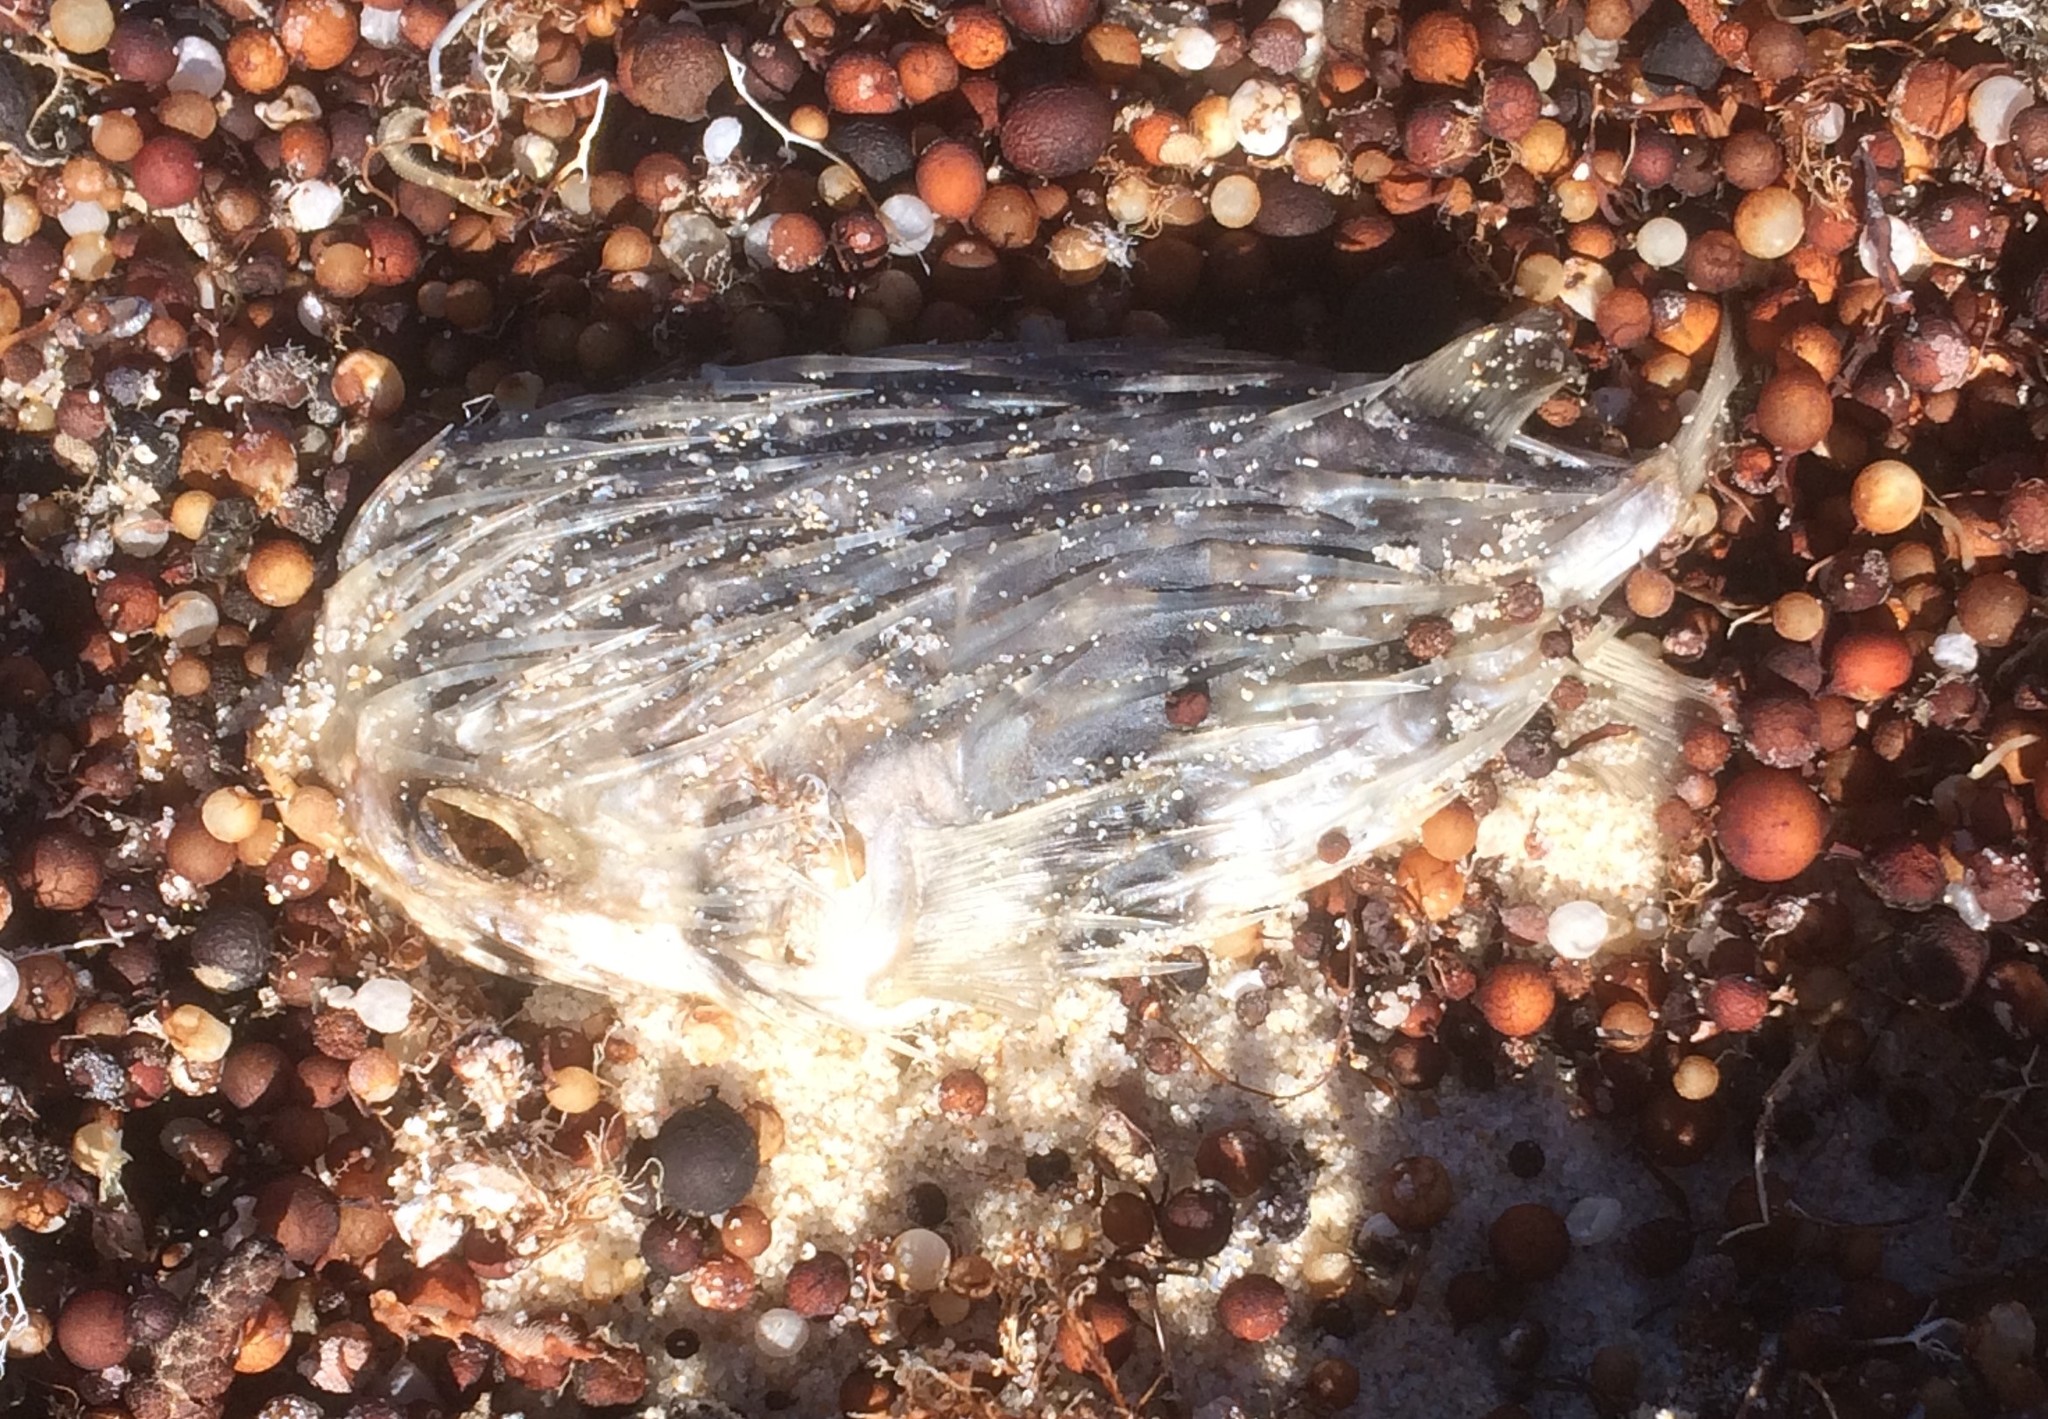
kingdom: Animalia
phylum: Chordata
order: Tetraodontiformes
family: Diodontidae
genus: Diodon
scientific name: Diodon nicthemerus
